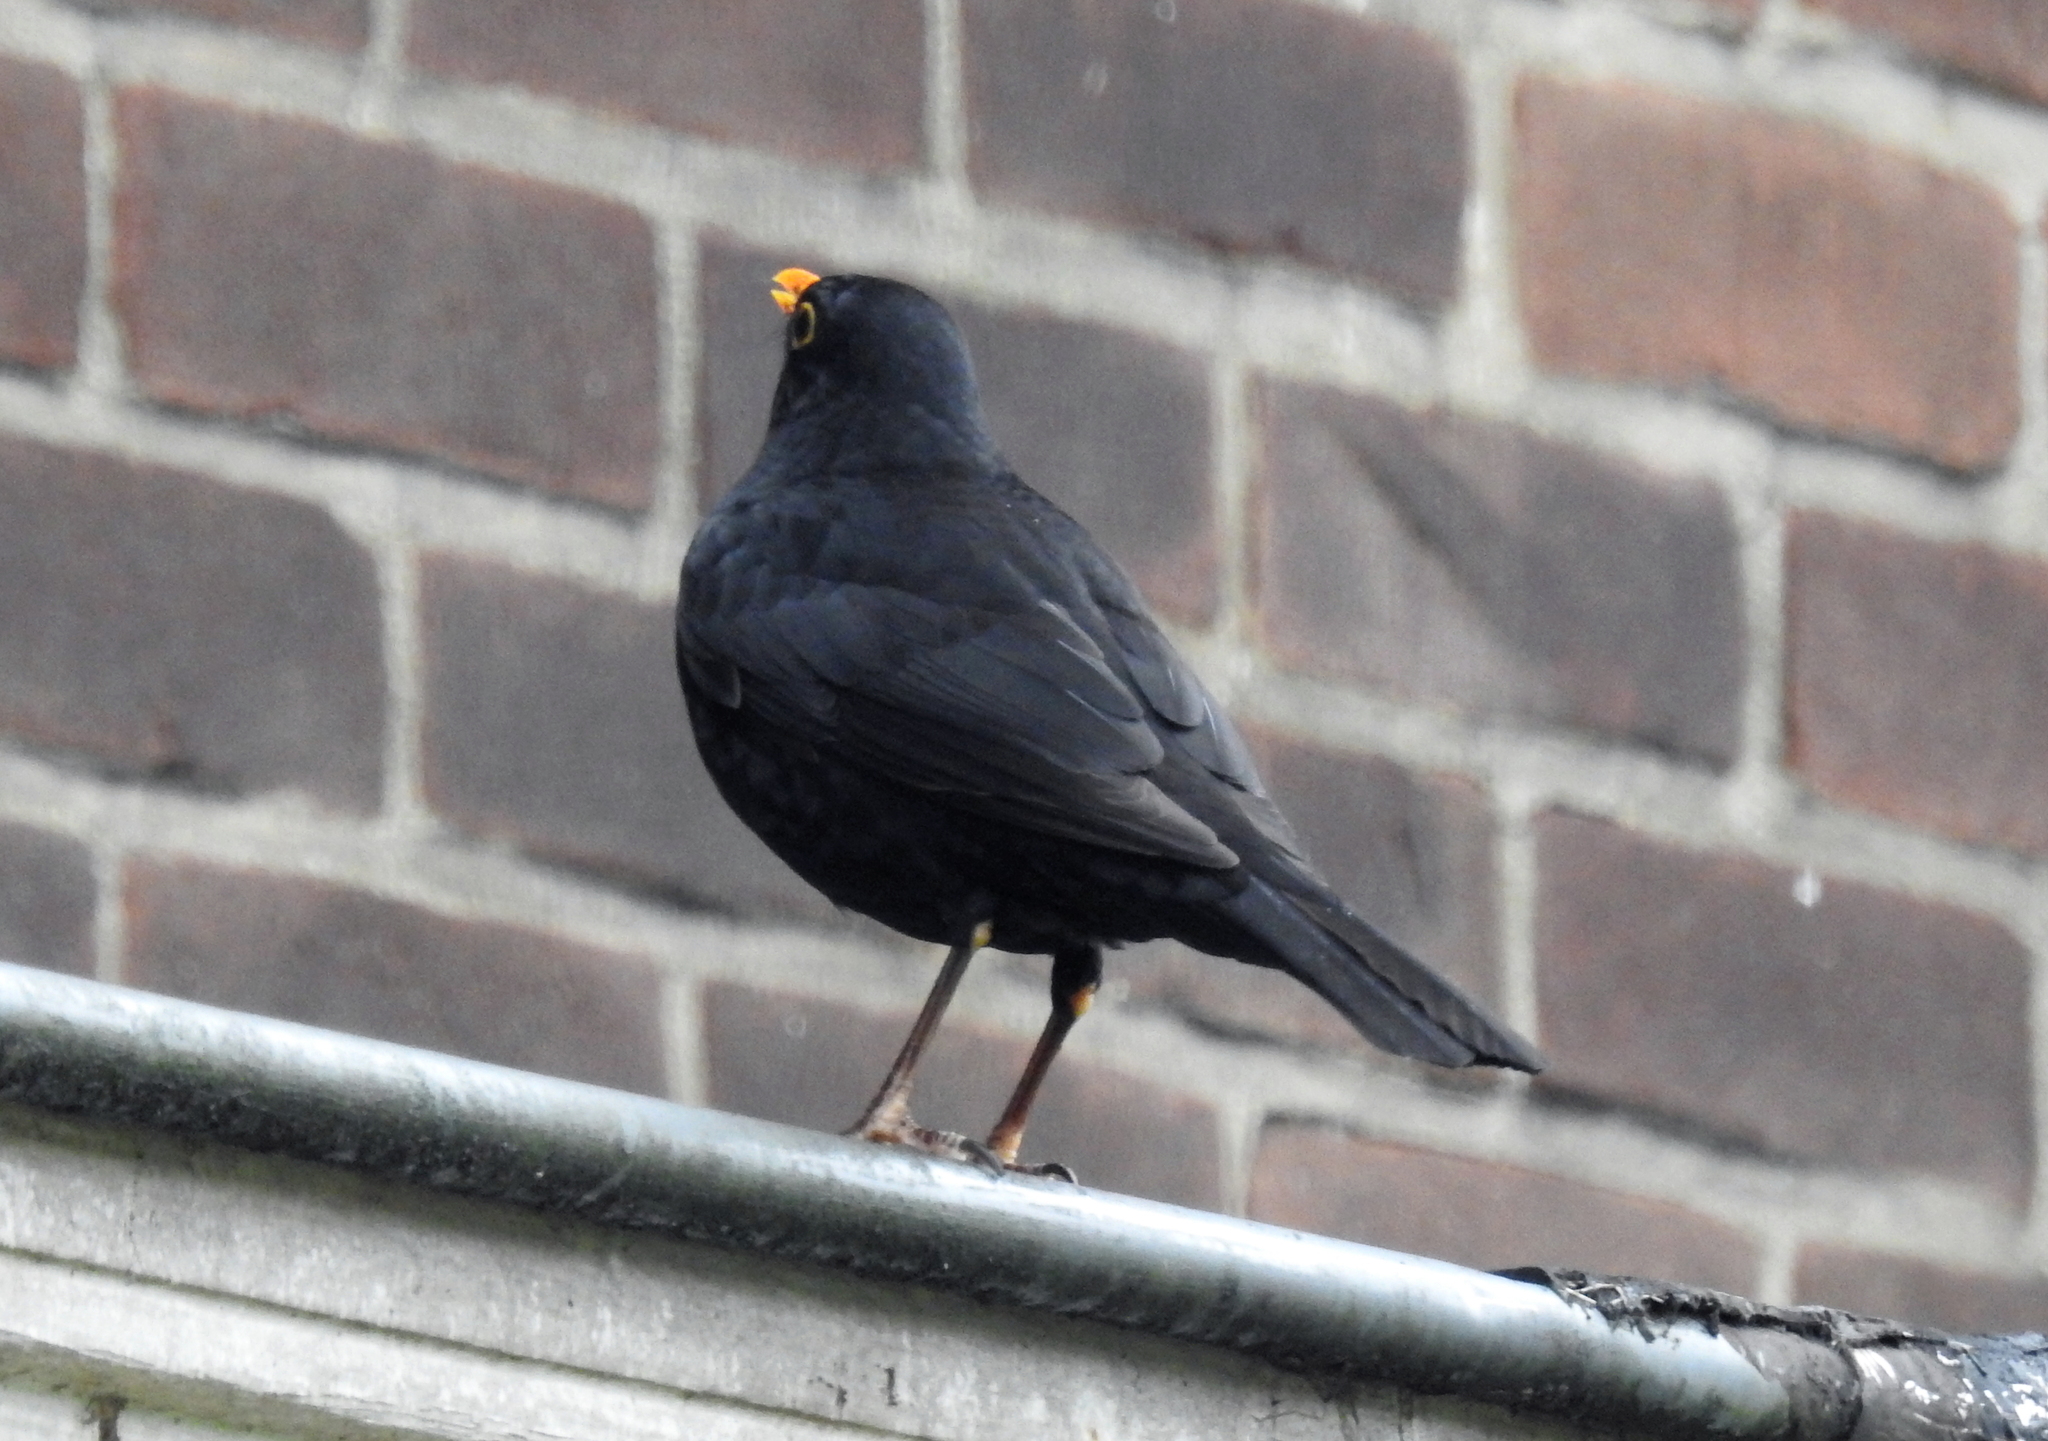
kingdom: Animalia
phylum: Chordata
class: Aves
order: Passeriformes
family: Turdidae
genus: Turdus
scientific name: Turdus merula
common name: Common blackbird
